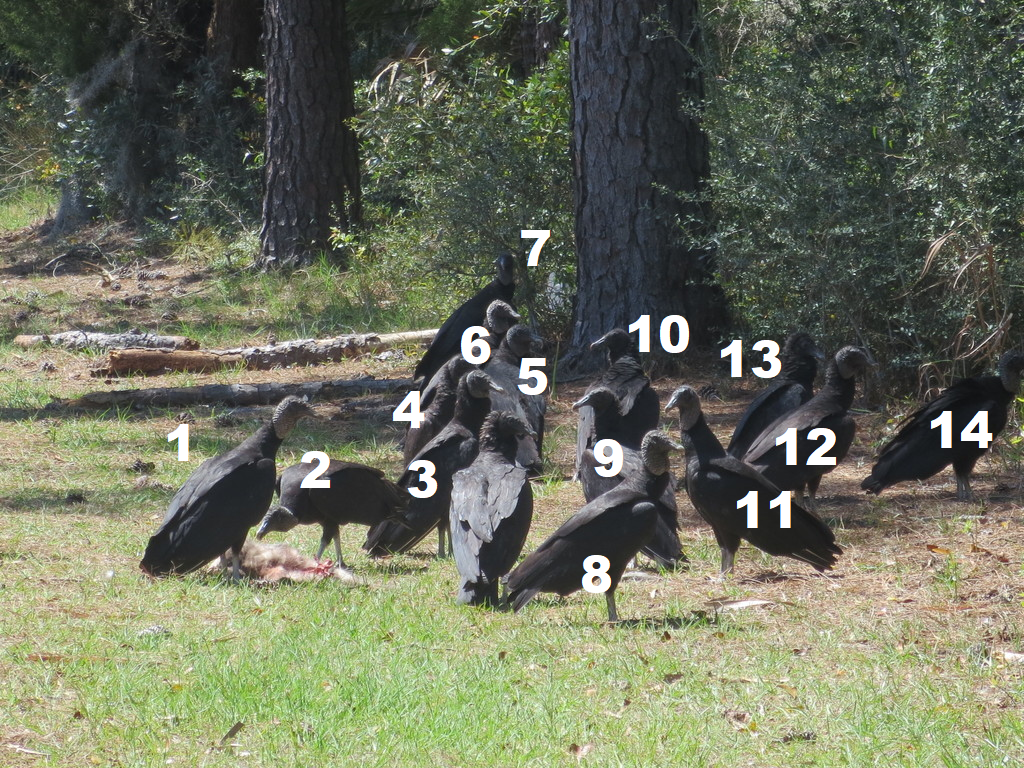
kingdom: Animalia
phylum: Chordata
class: Aves
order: Accipitriformes
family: Cathartidae
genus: Coragyps
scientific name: Coragyps atratus
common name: Black vulture
